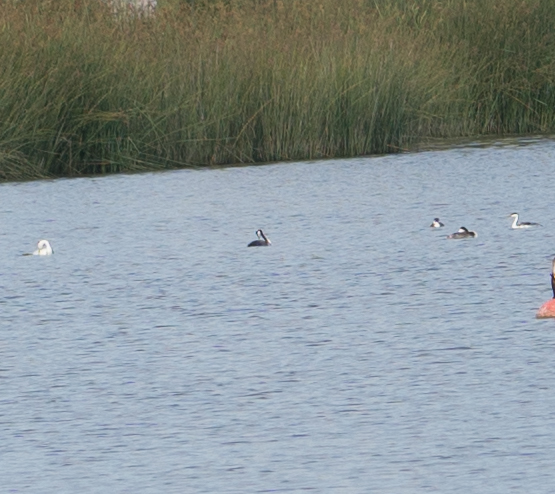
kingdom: Animalia
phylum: Chordata
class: Aves
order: Podicipediformes
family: Podicipedidae
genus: Aechmophorus
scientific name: Aechmophorus occidentalis
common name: Western grebe
